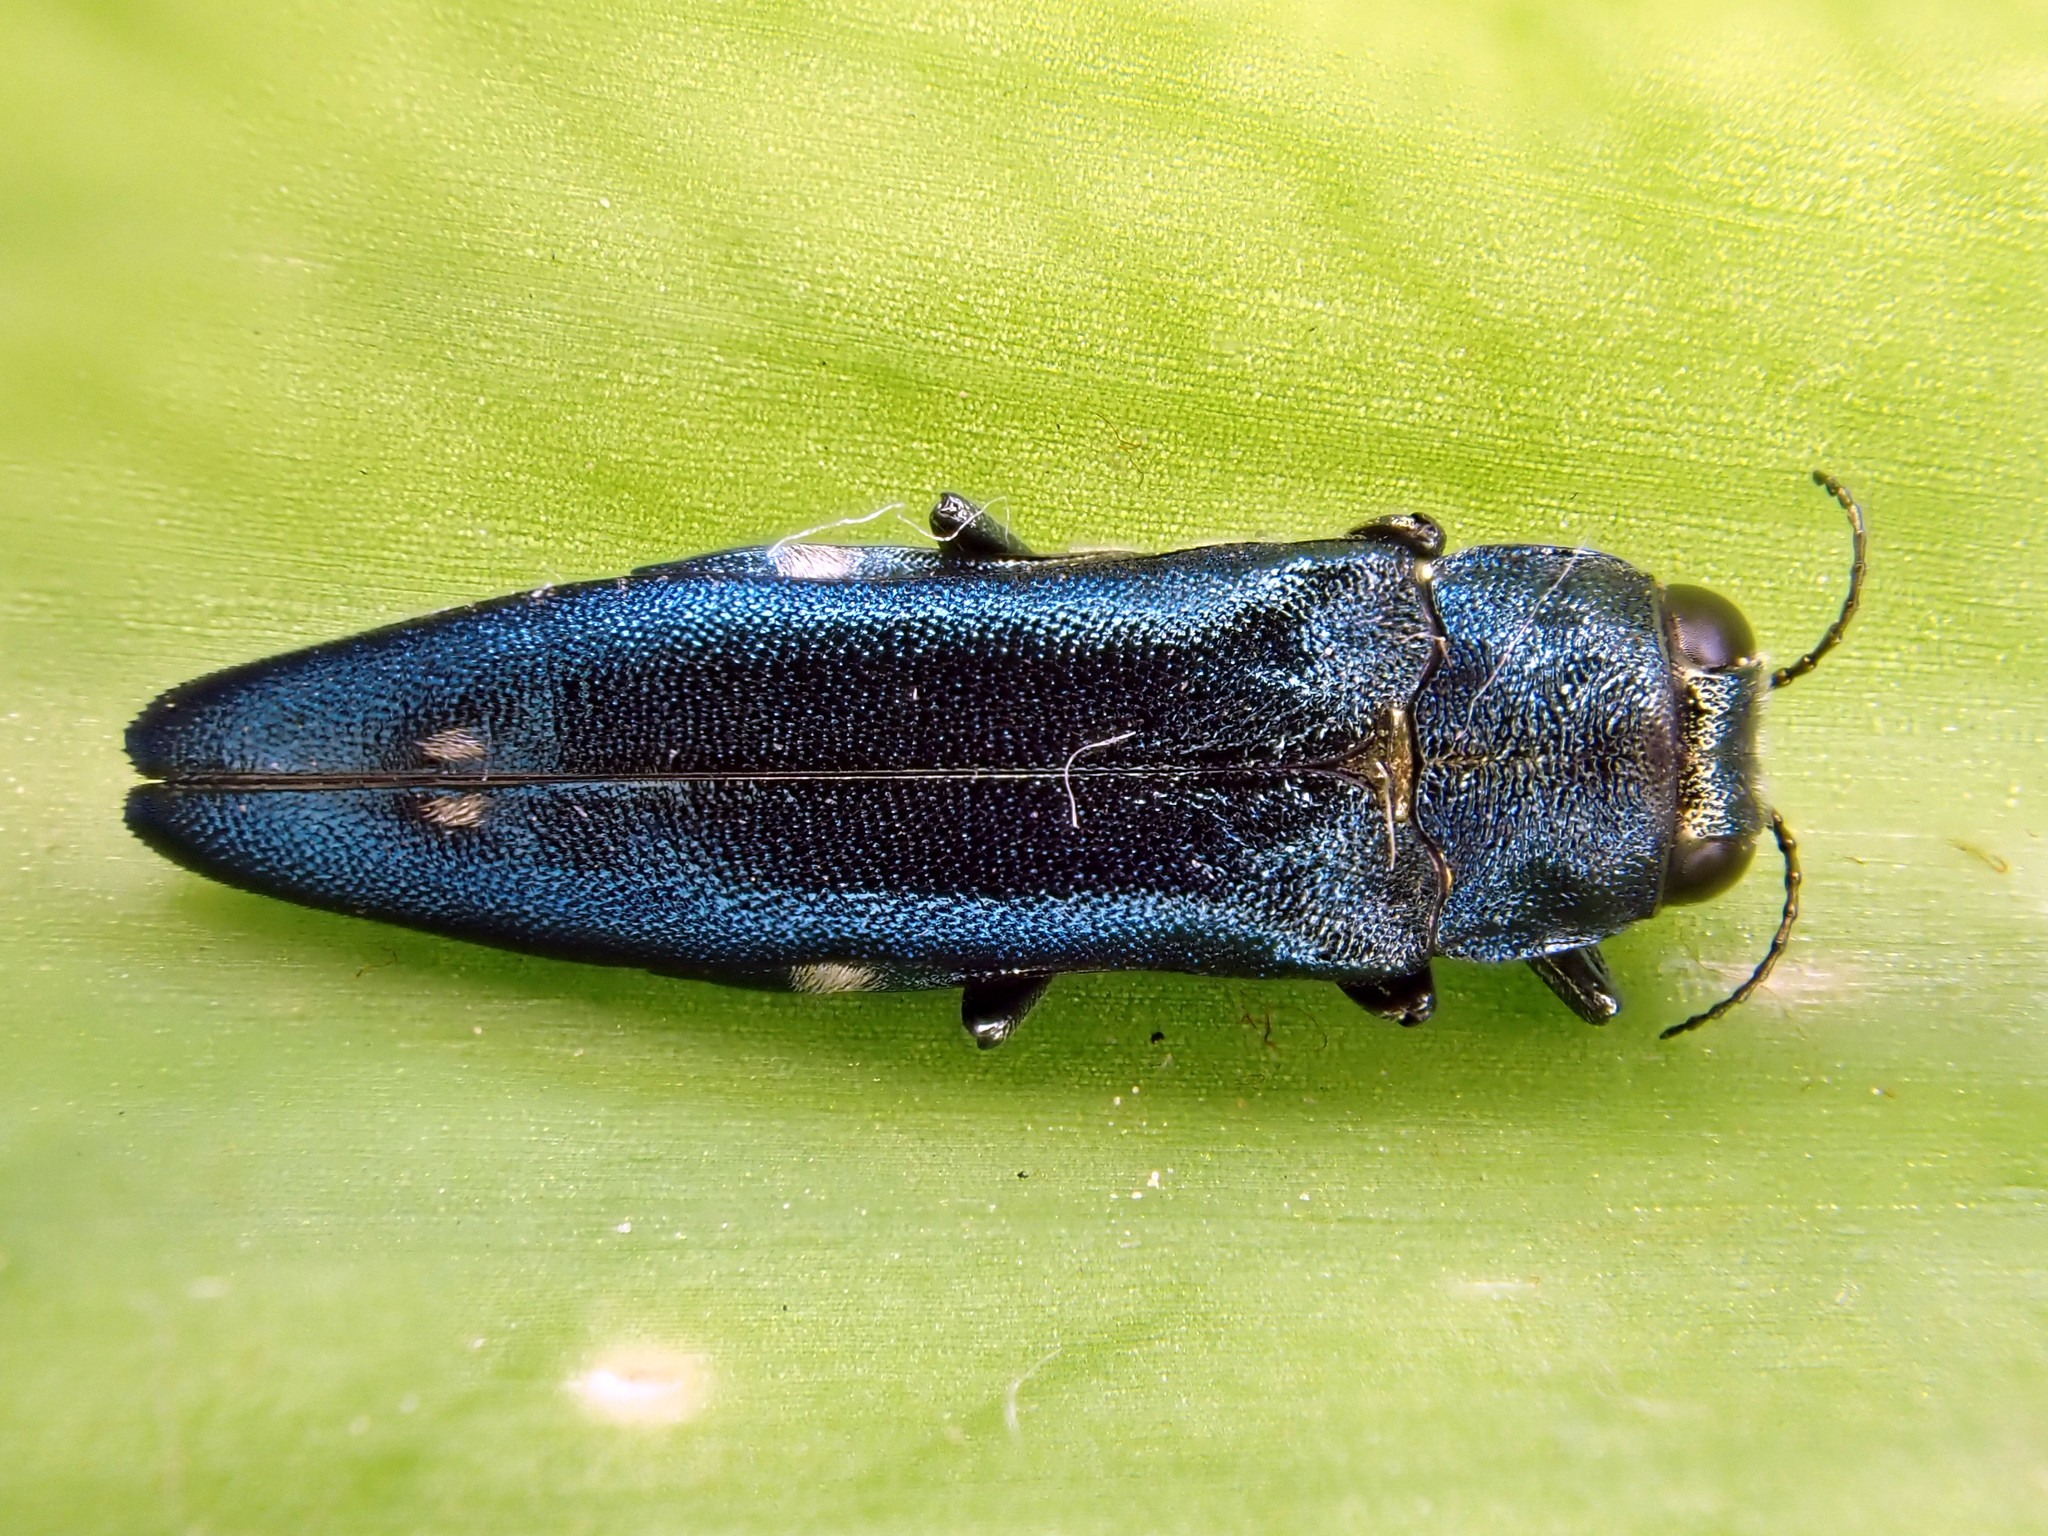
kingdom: Animalia
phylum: Arthropoda
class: Insecta
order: Coleoptera
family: Buprestidae
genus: Agrilus
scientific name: Agrilus biguttatus
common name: Oak jewel beetle
